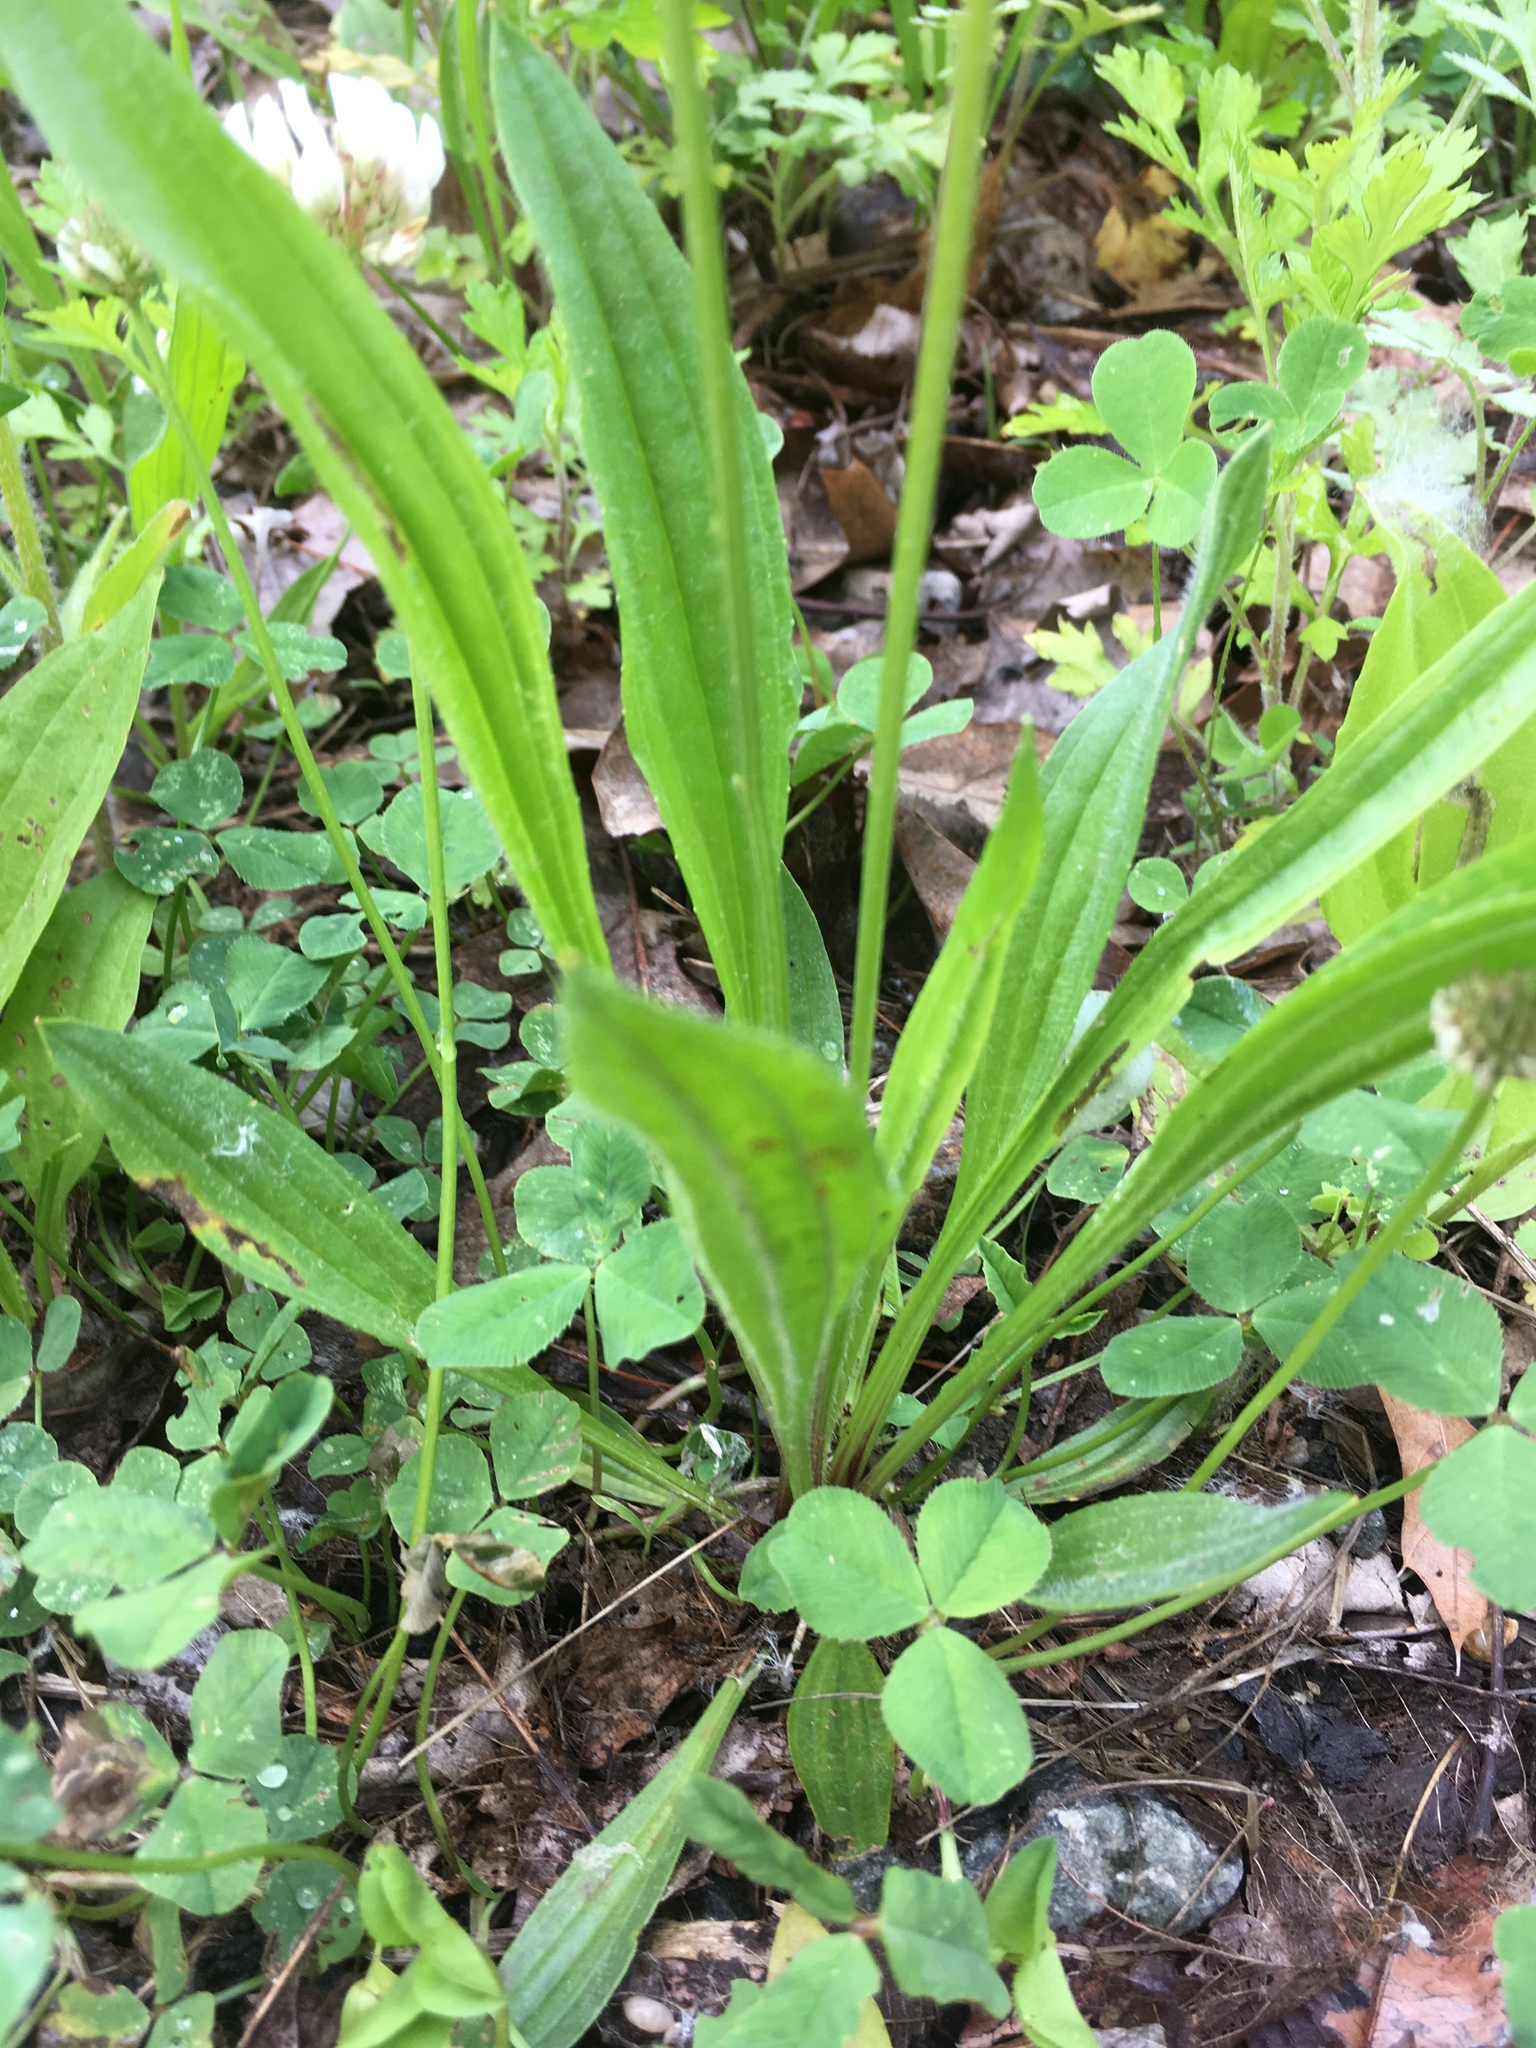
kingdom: Plantae
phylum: Tracheophyta
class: Magnoliopsida
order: Lamiales
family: Plantaginaceae
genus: Plantago
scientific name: Plantago lanceolata
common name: Ribwort plantain
